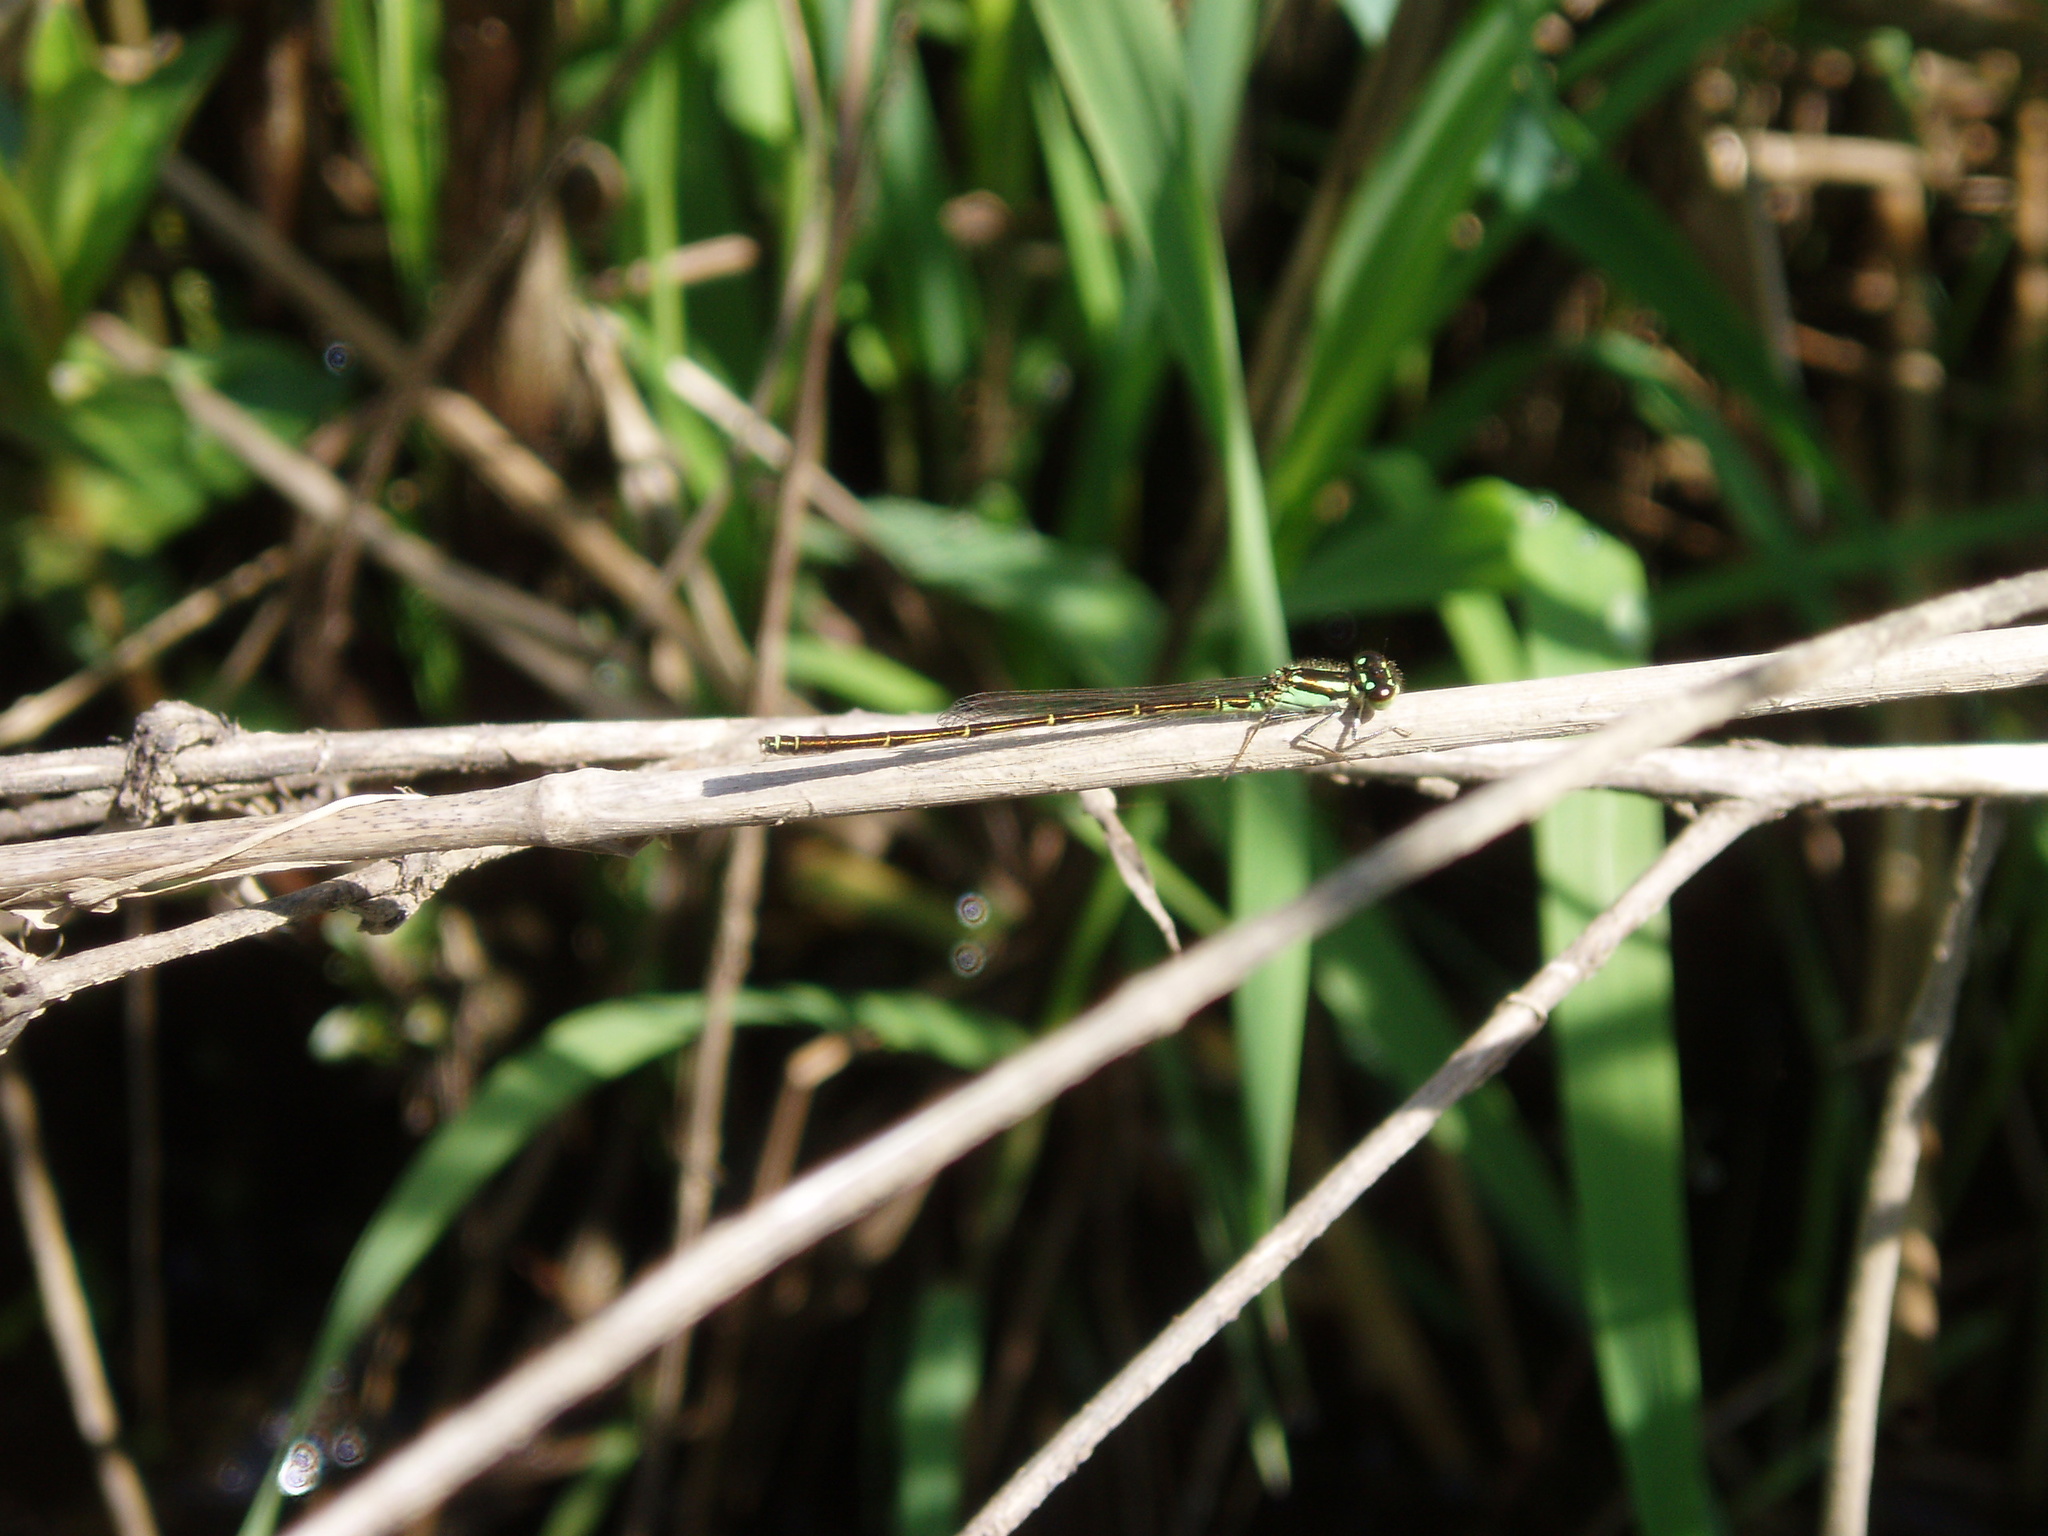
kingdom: Animalia
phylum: Arthropoda
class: Insecta
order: Odonata
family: Coenagrionidae
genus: Ischnura
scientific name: Ischnura posita
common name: Fragile forktail
